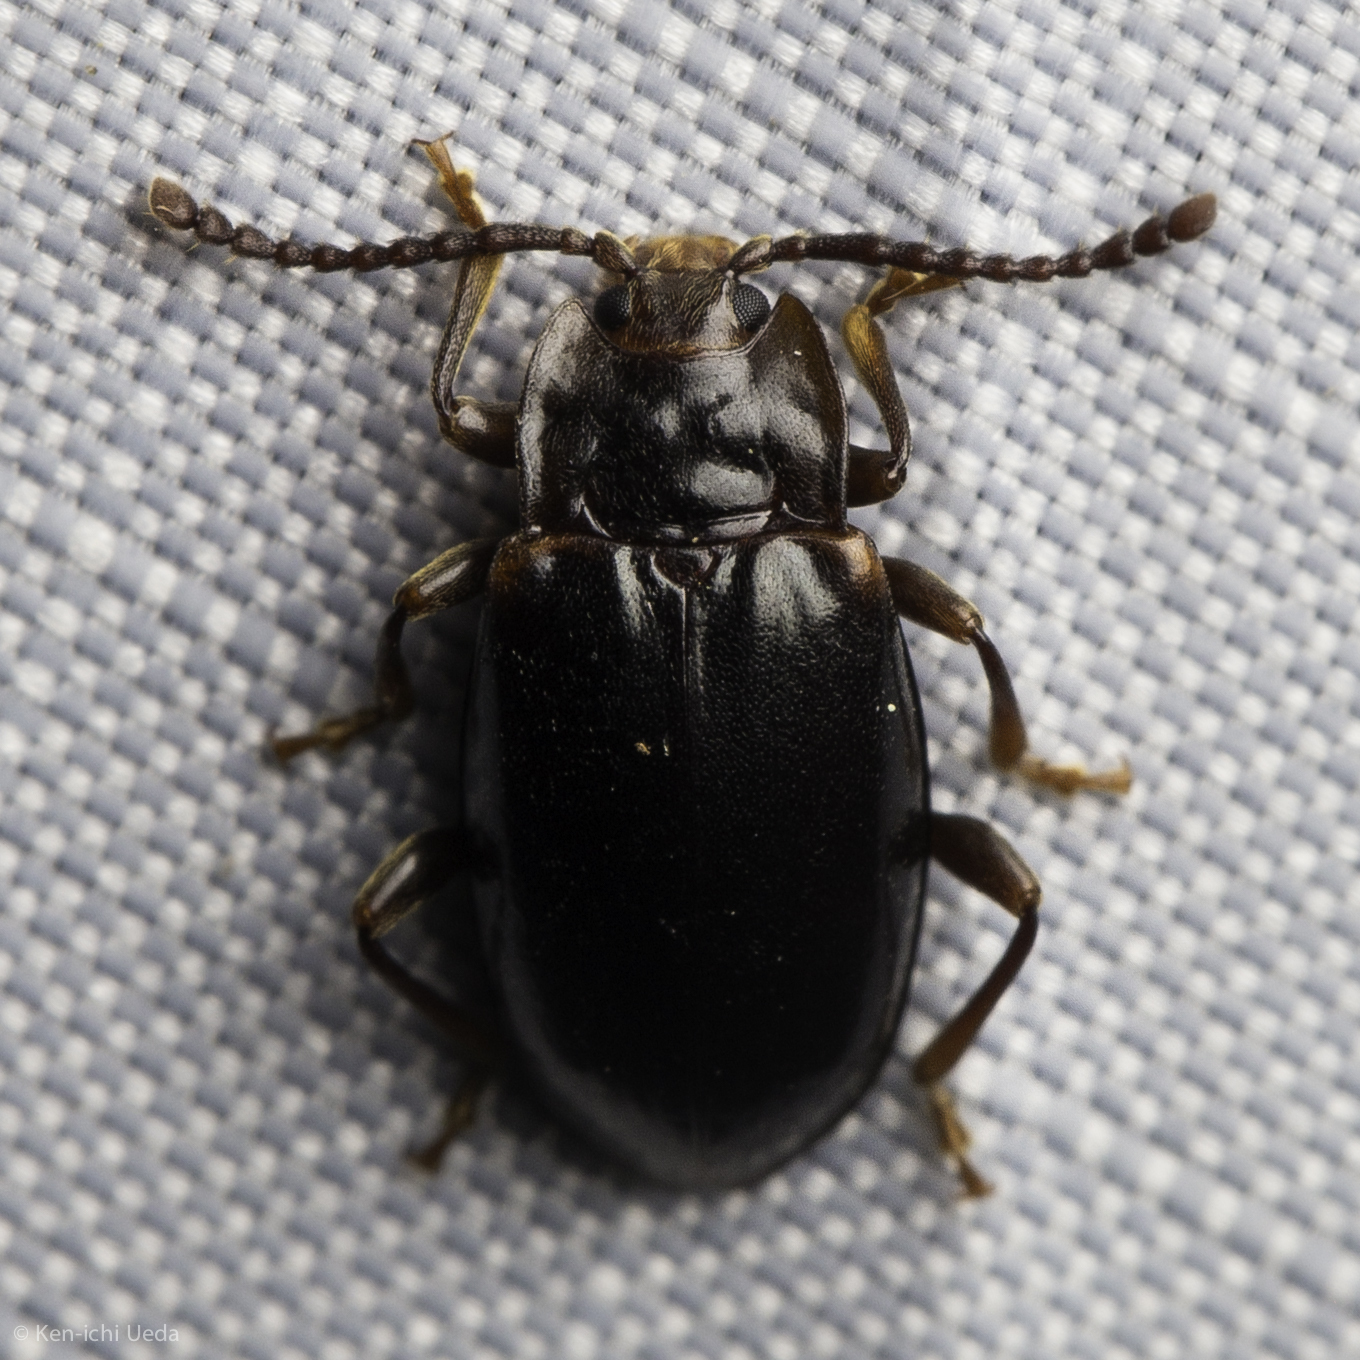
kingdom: Animalia
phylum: Arthropoda
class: Insecta
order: Coleoptera
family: Endomychidae
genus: Aphorista
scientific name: Aphorista morosa
